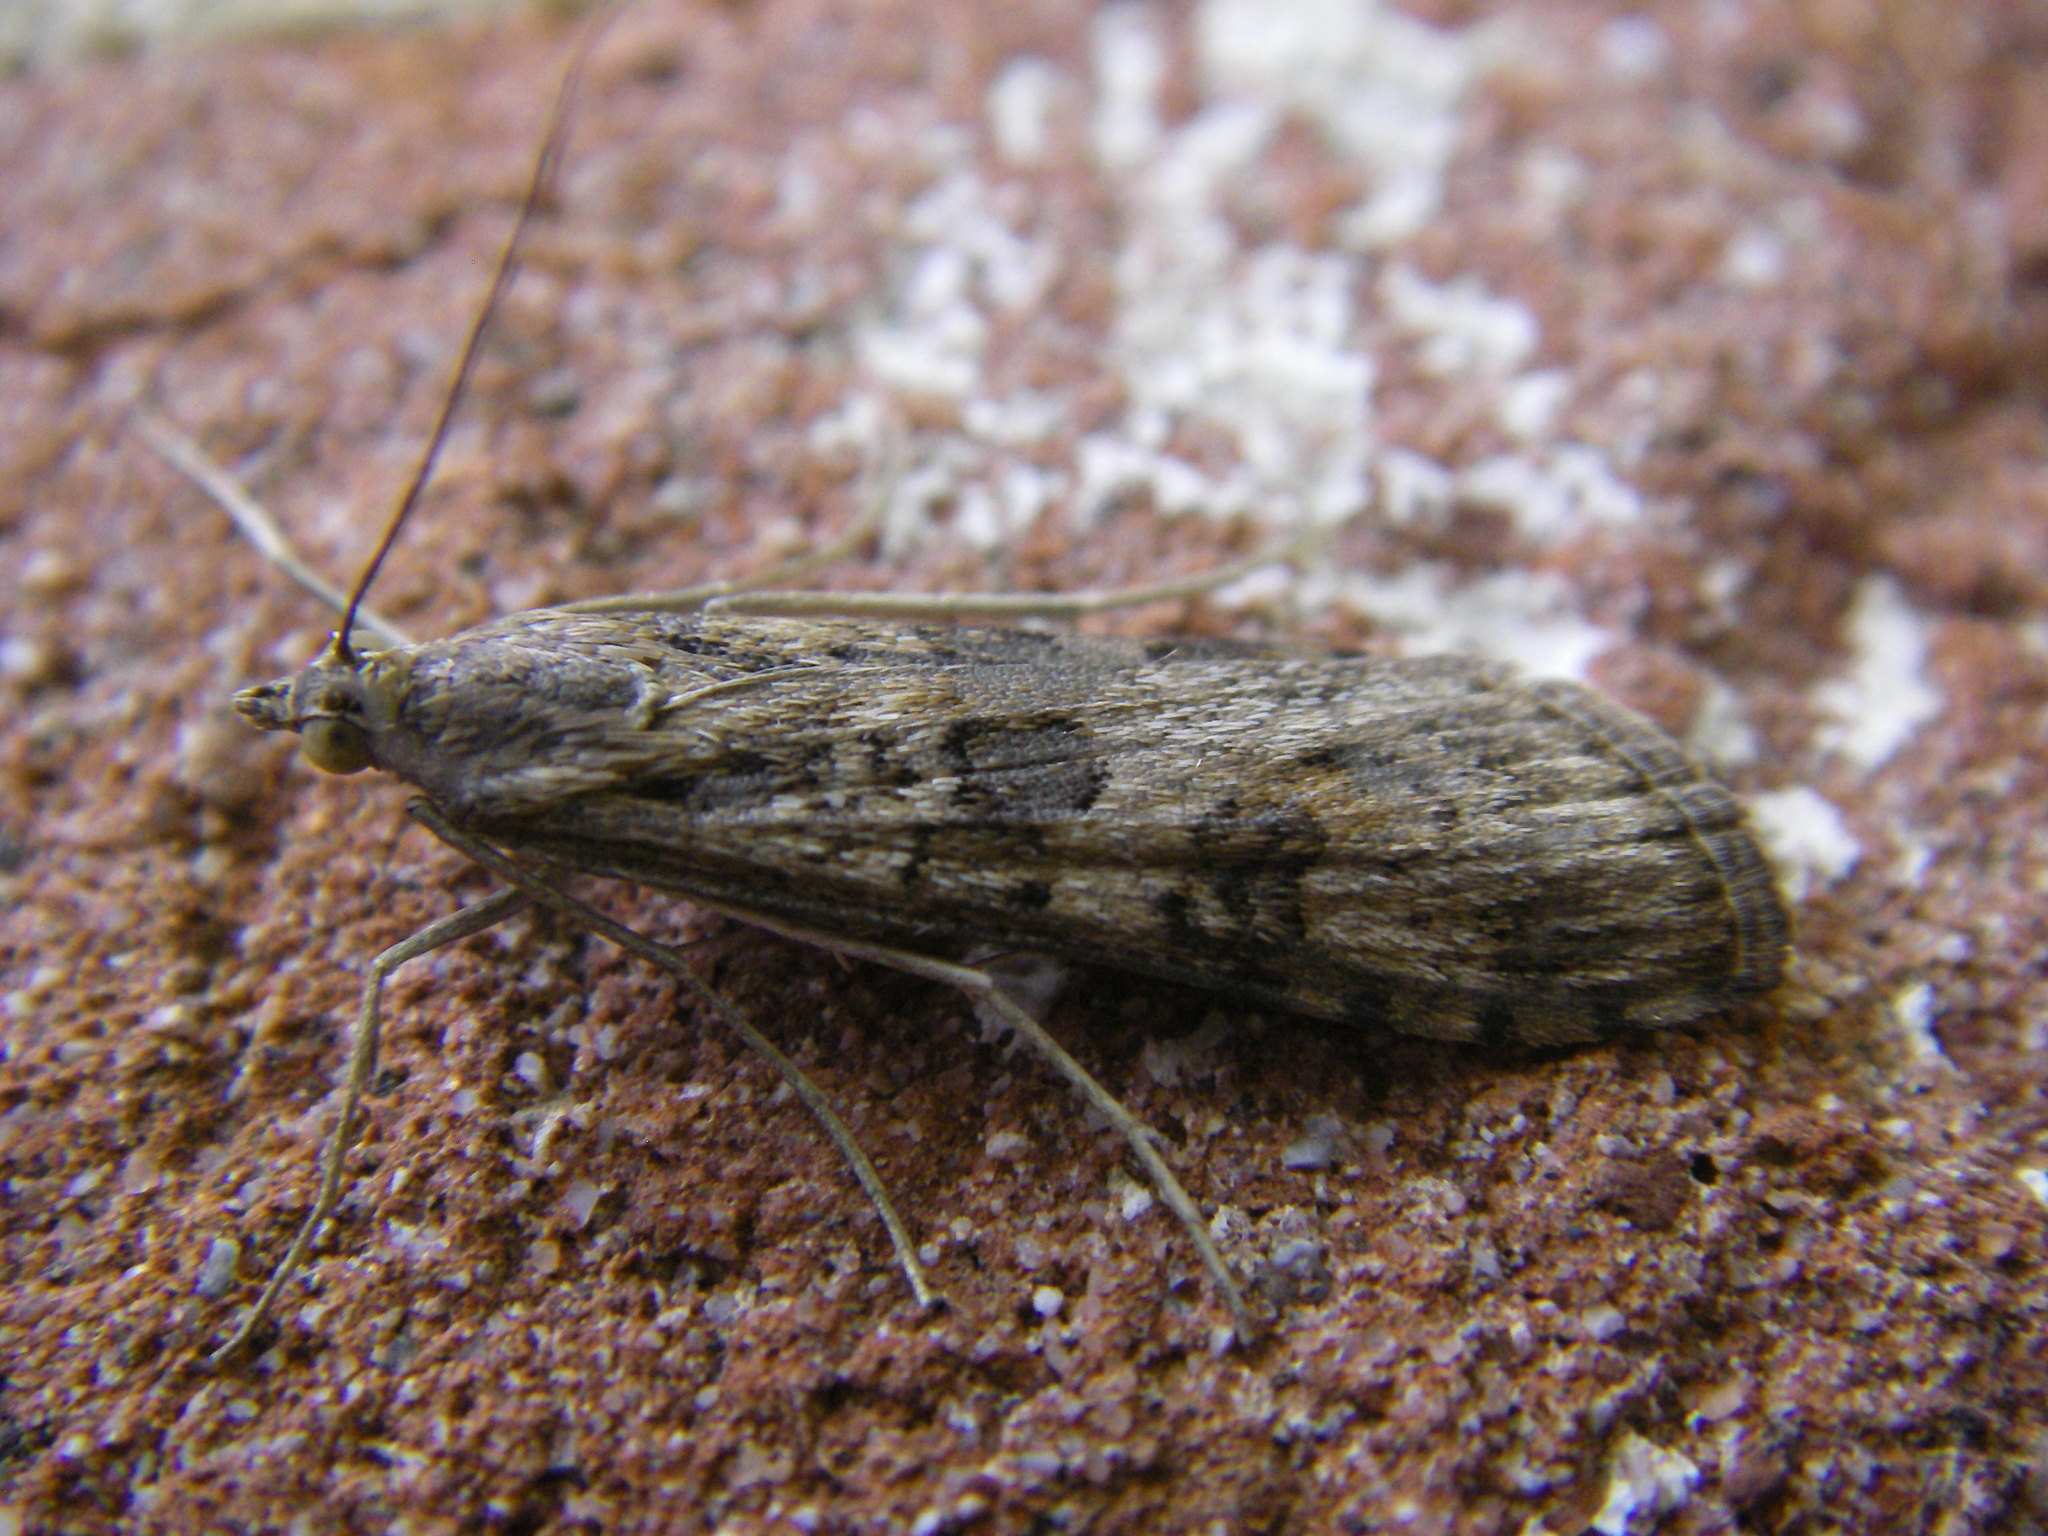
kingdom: Animalia
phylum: Arthropoda
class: Insecta
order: Lepidoptera
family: Crambidae
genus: Nomophila
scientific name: Nomophila noctuella
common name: Rush veneer
